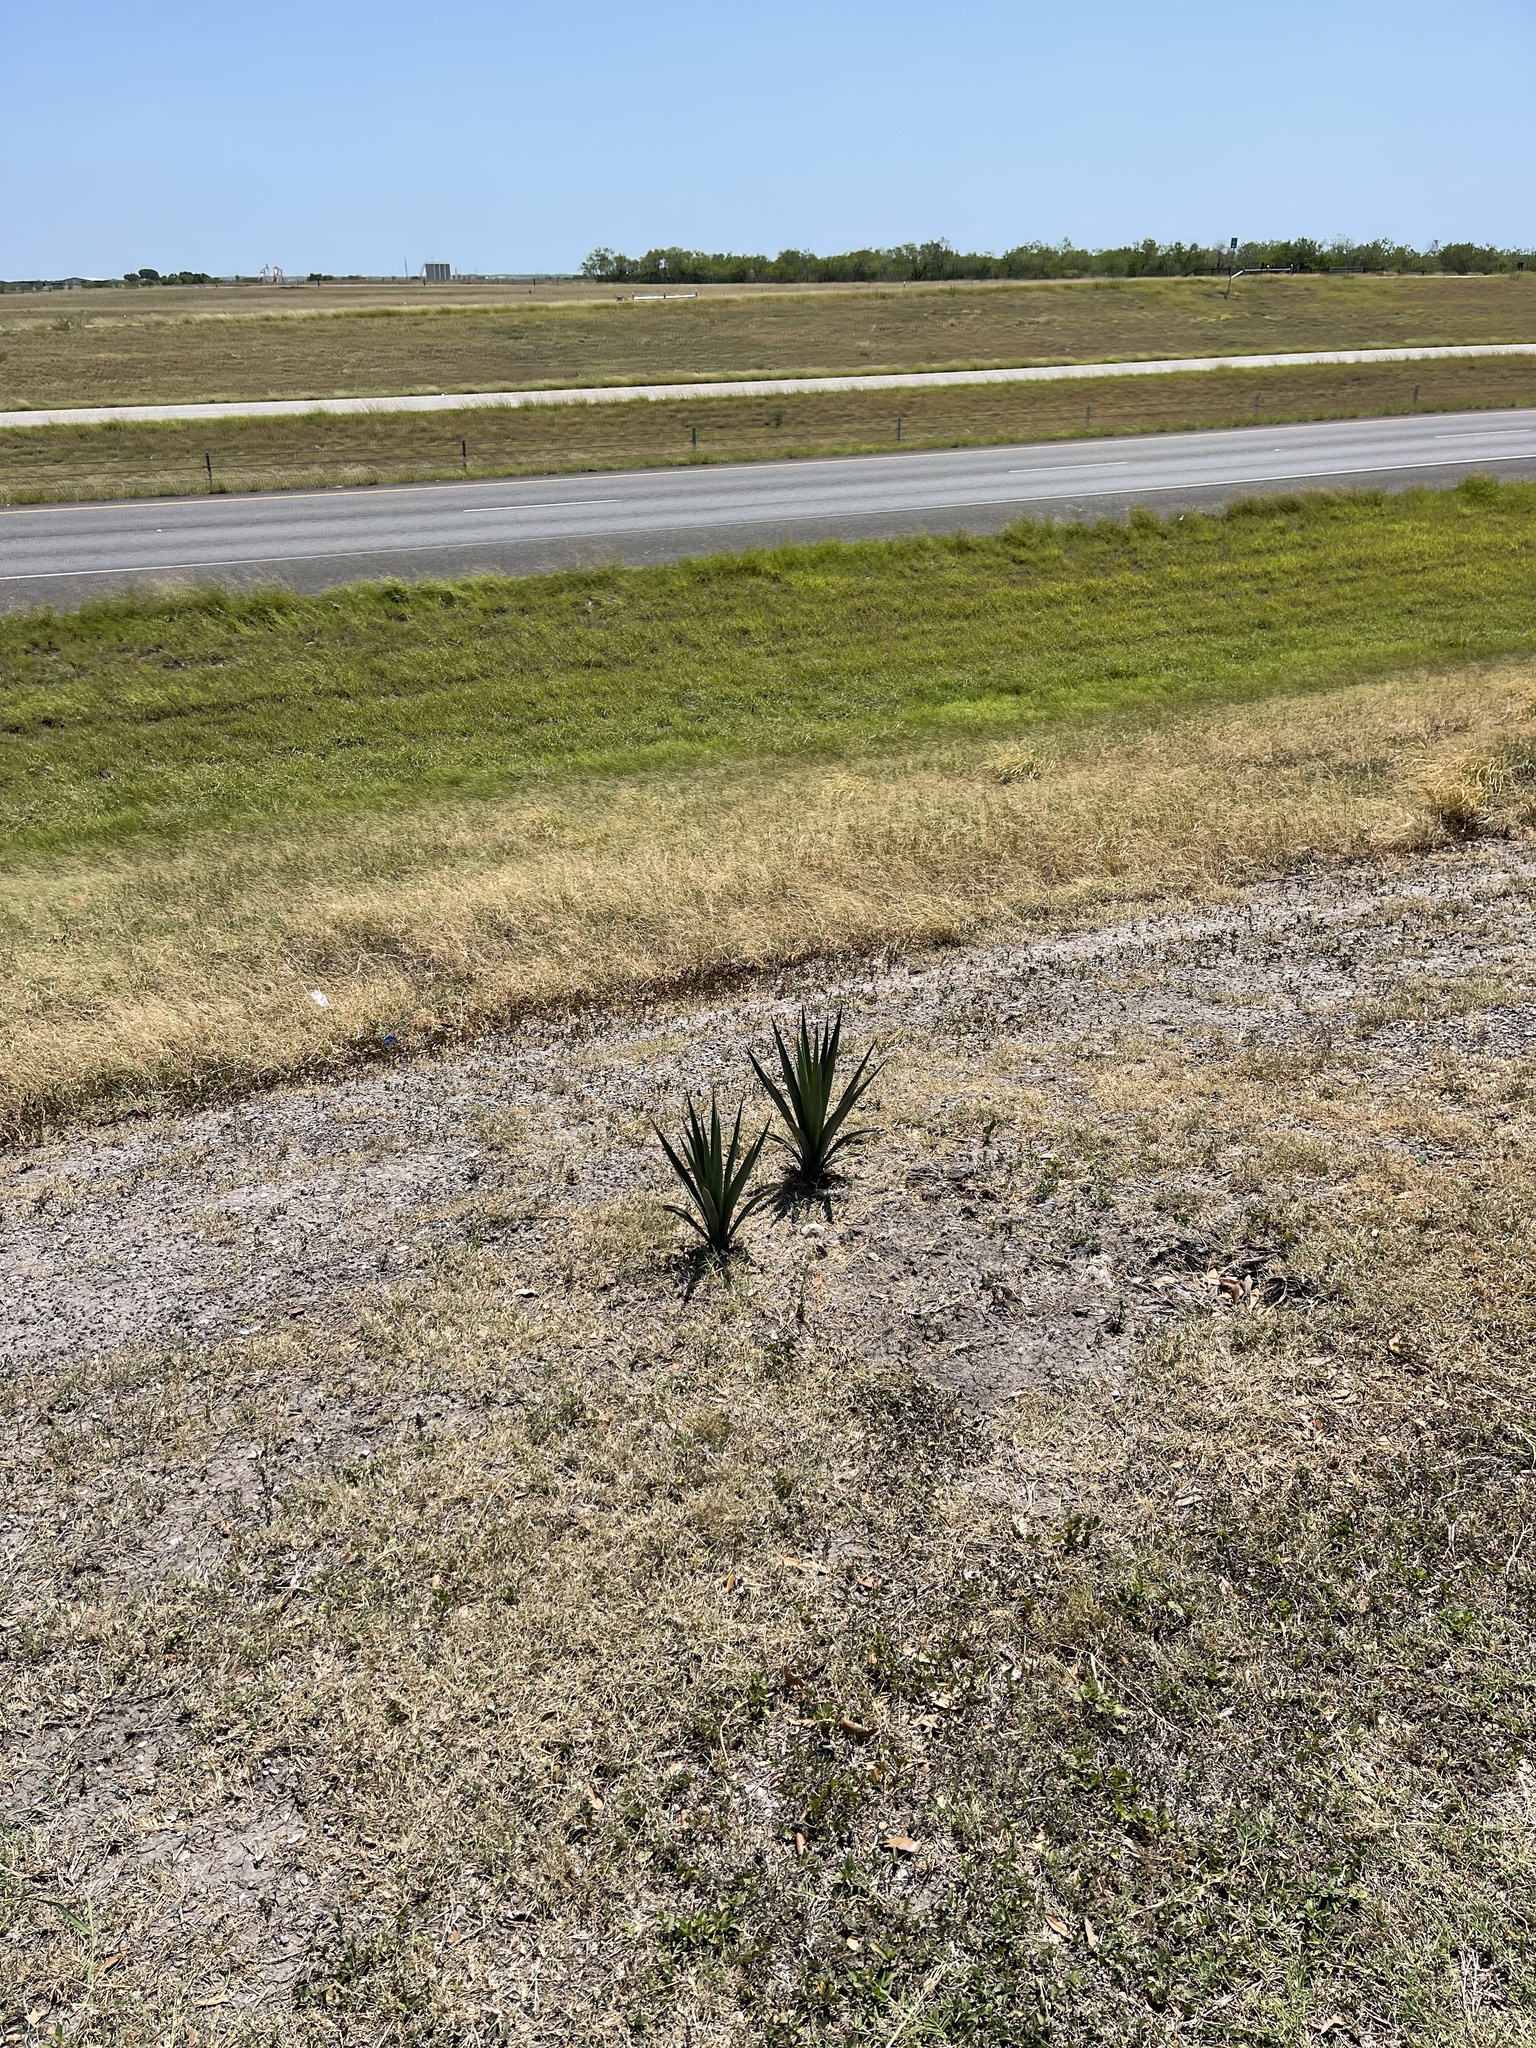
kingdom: Plantae
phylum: Tracheophyta
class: Liliopsida
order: Asparagales
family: Asparagaceae
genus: Yucca
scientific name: Yucca treculiana
